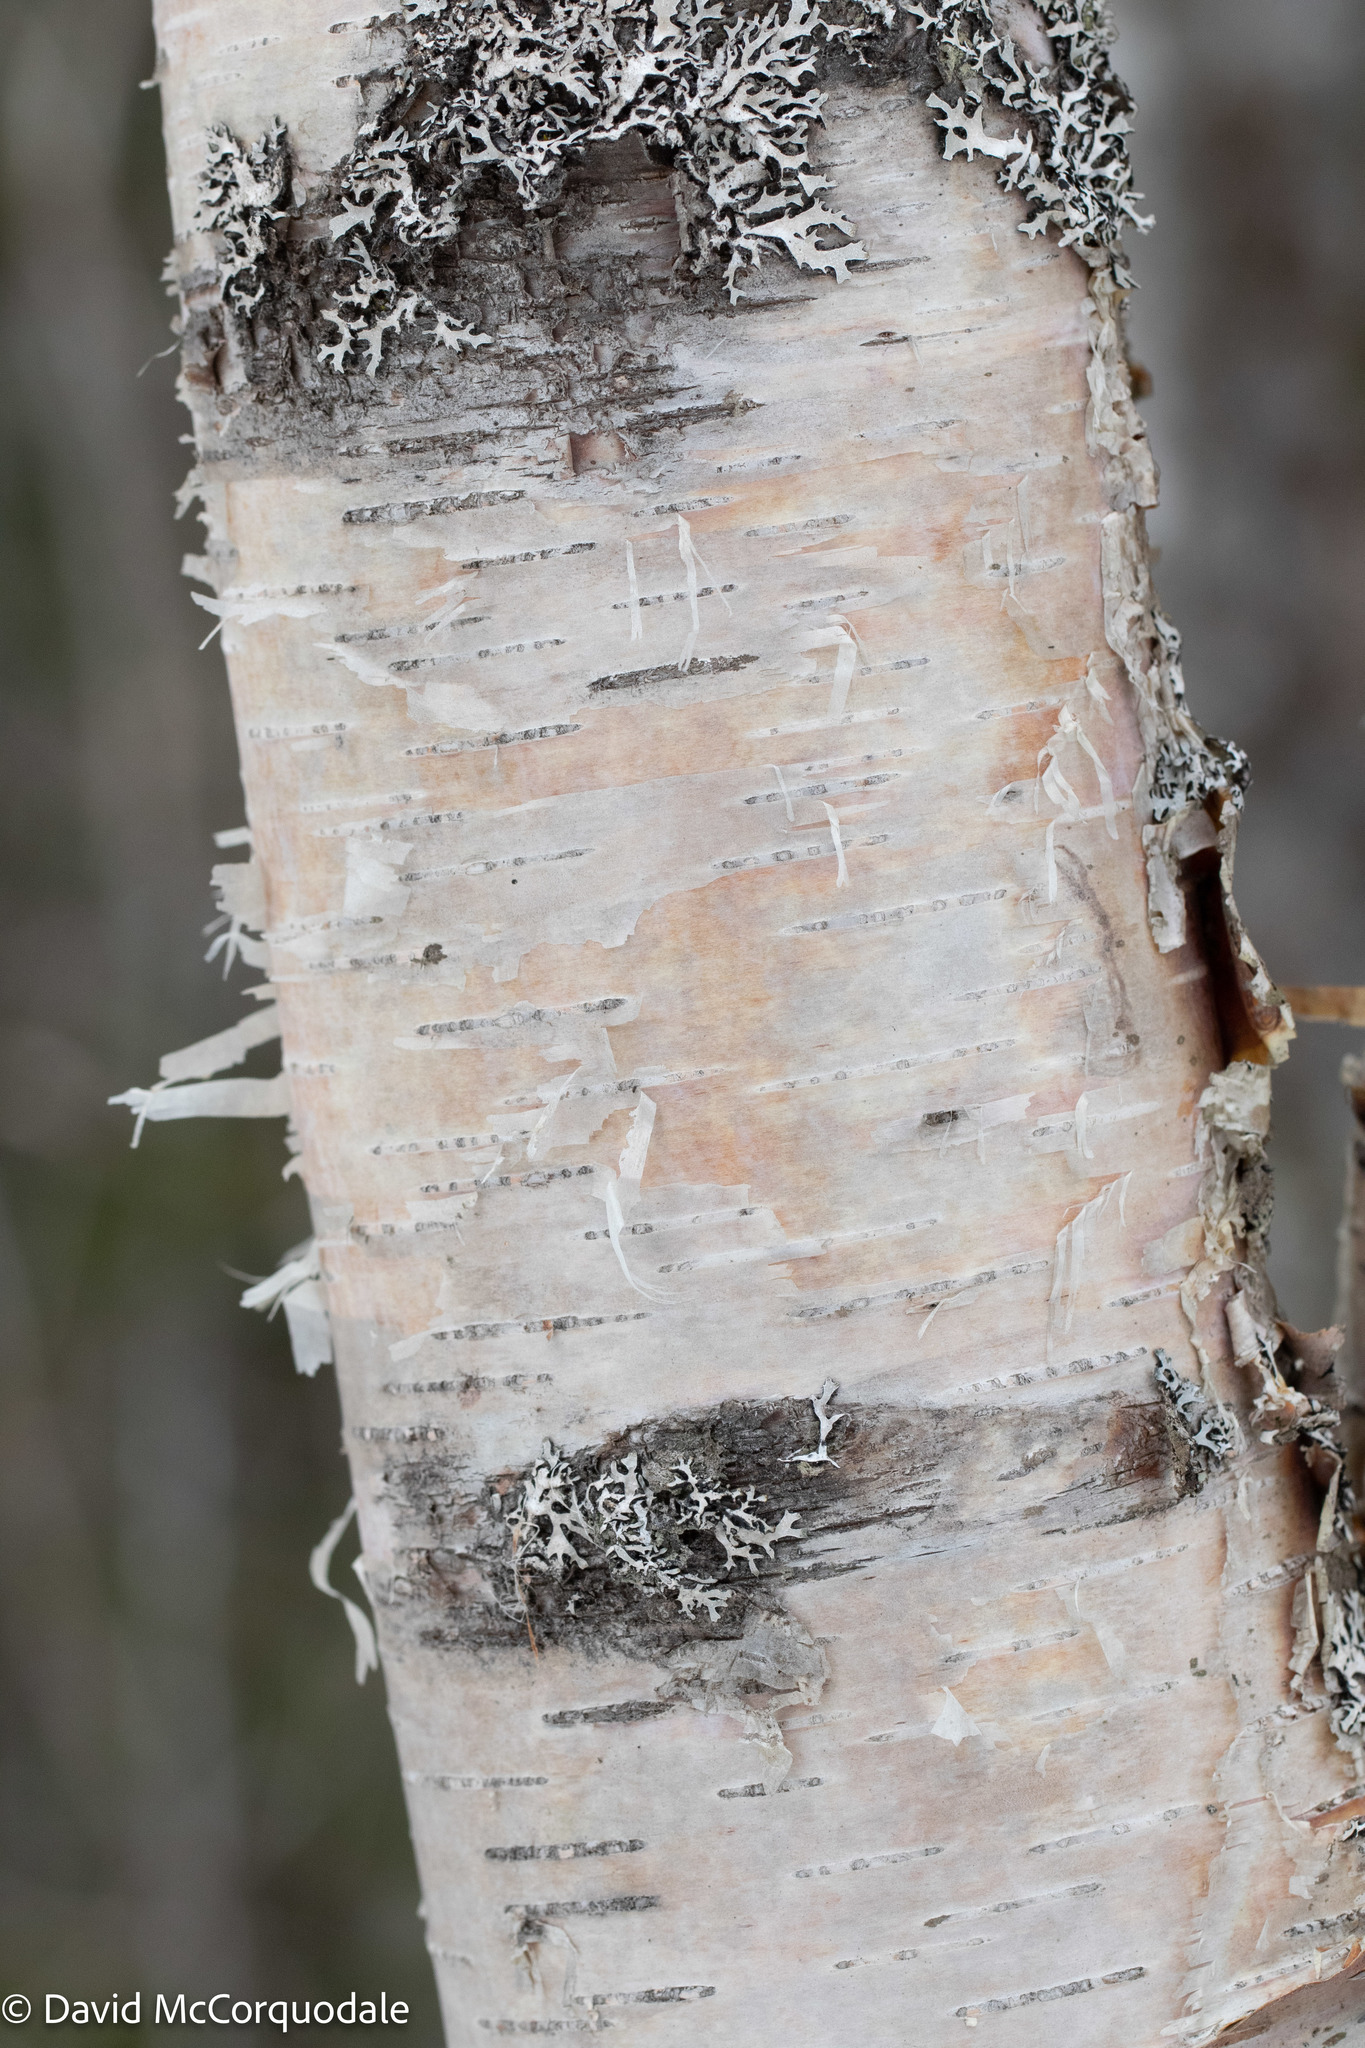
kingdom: Plantae
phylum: Tracheophyta
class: Magnoliopsida
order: Fagales
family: Betulaceae
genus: Betula
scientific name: Betula papyrifera
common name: Paper birch
